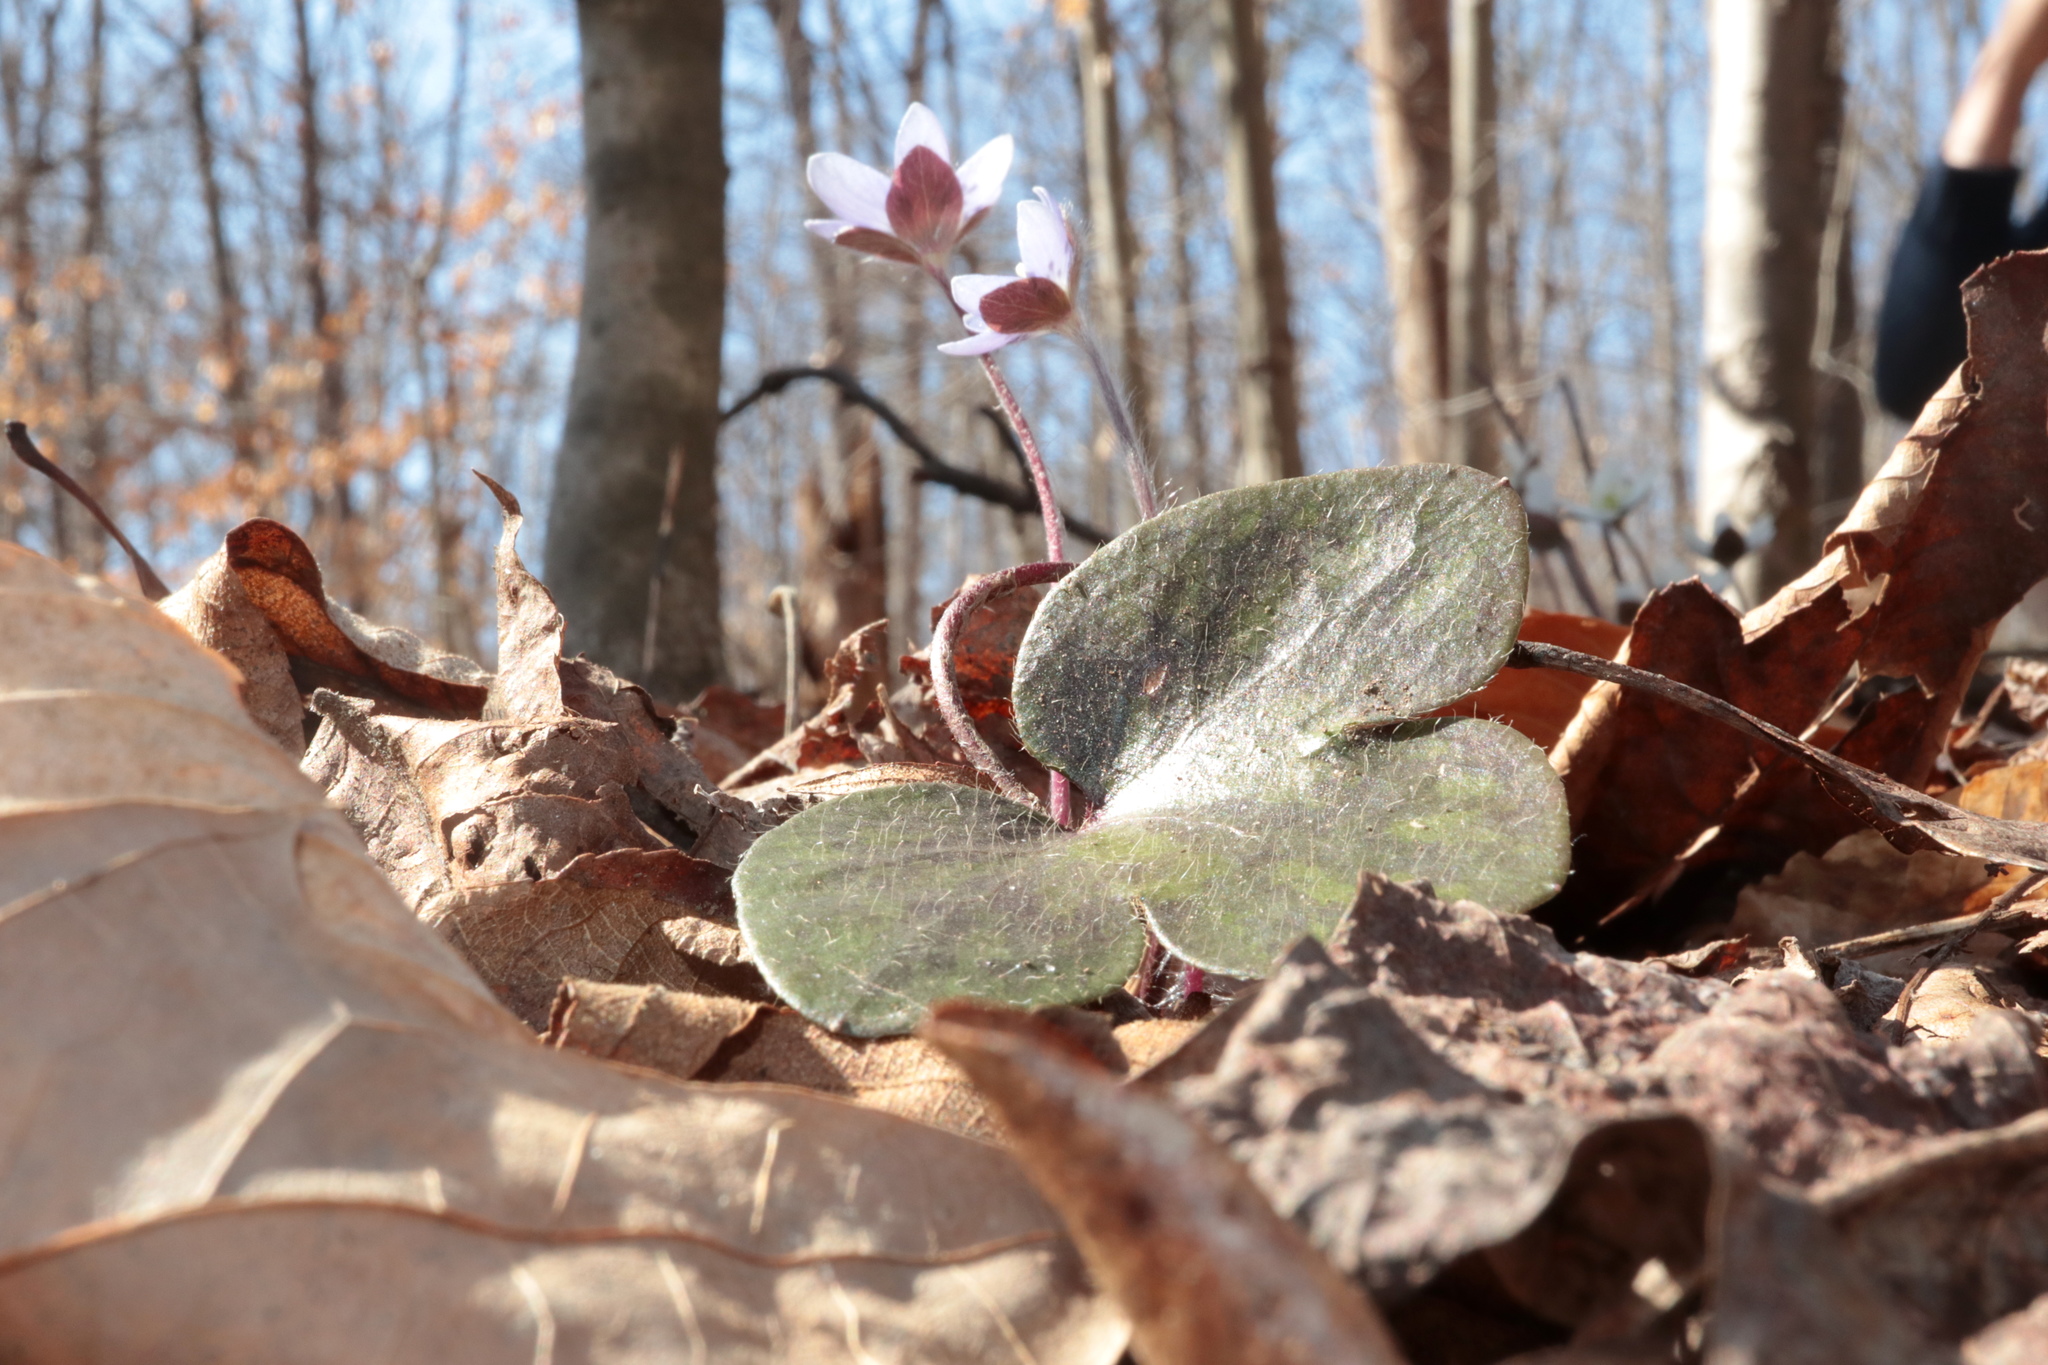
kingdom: Plantae
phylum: Tracheophyta
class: Magnoliopsida
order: Ranunculales
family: Ranunculaceae
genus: Hepatica
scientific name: Hepatica americana
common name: American hepatica
